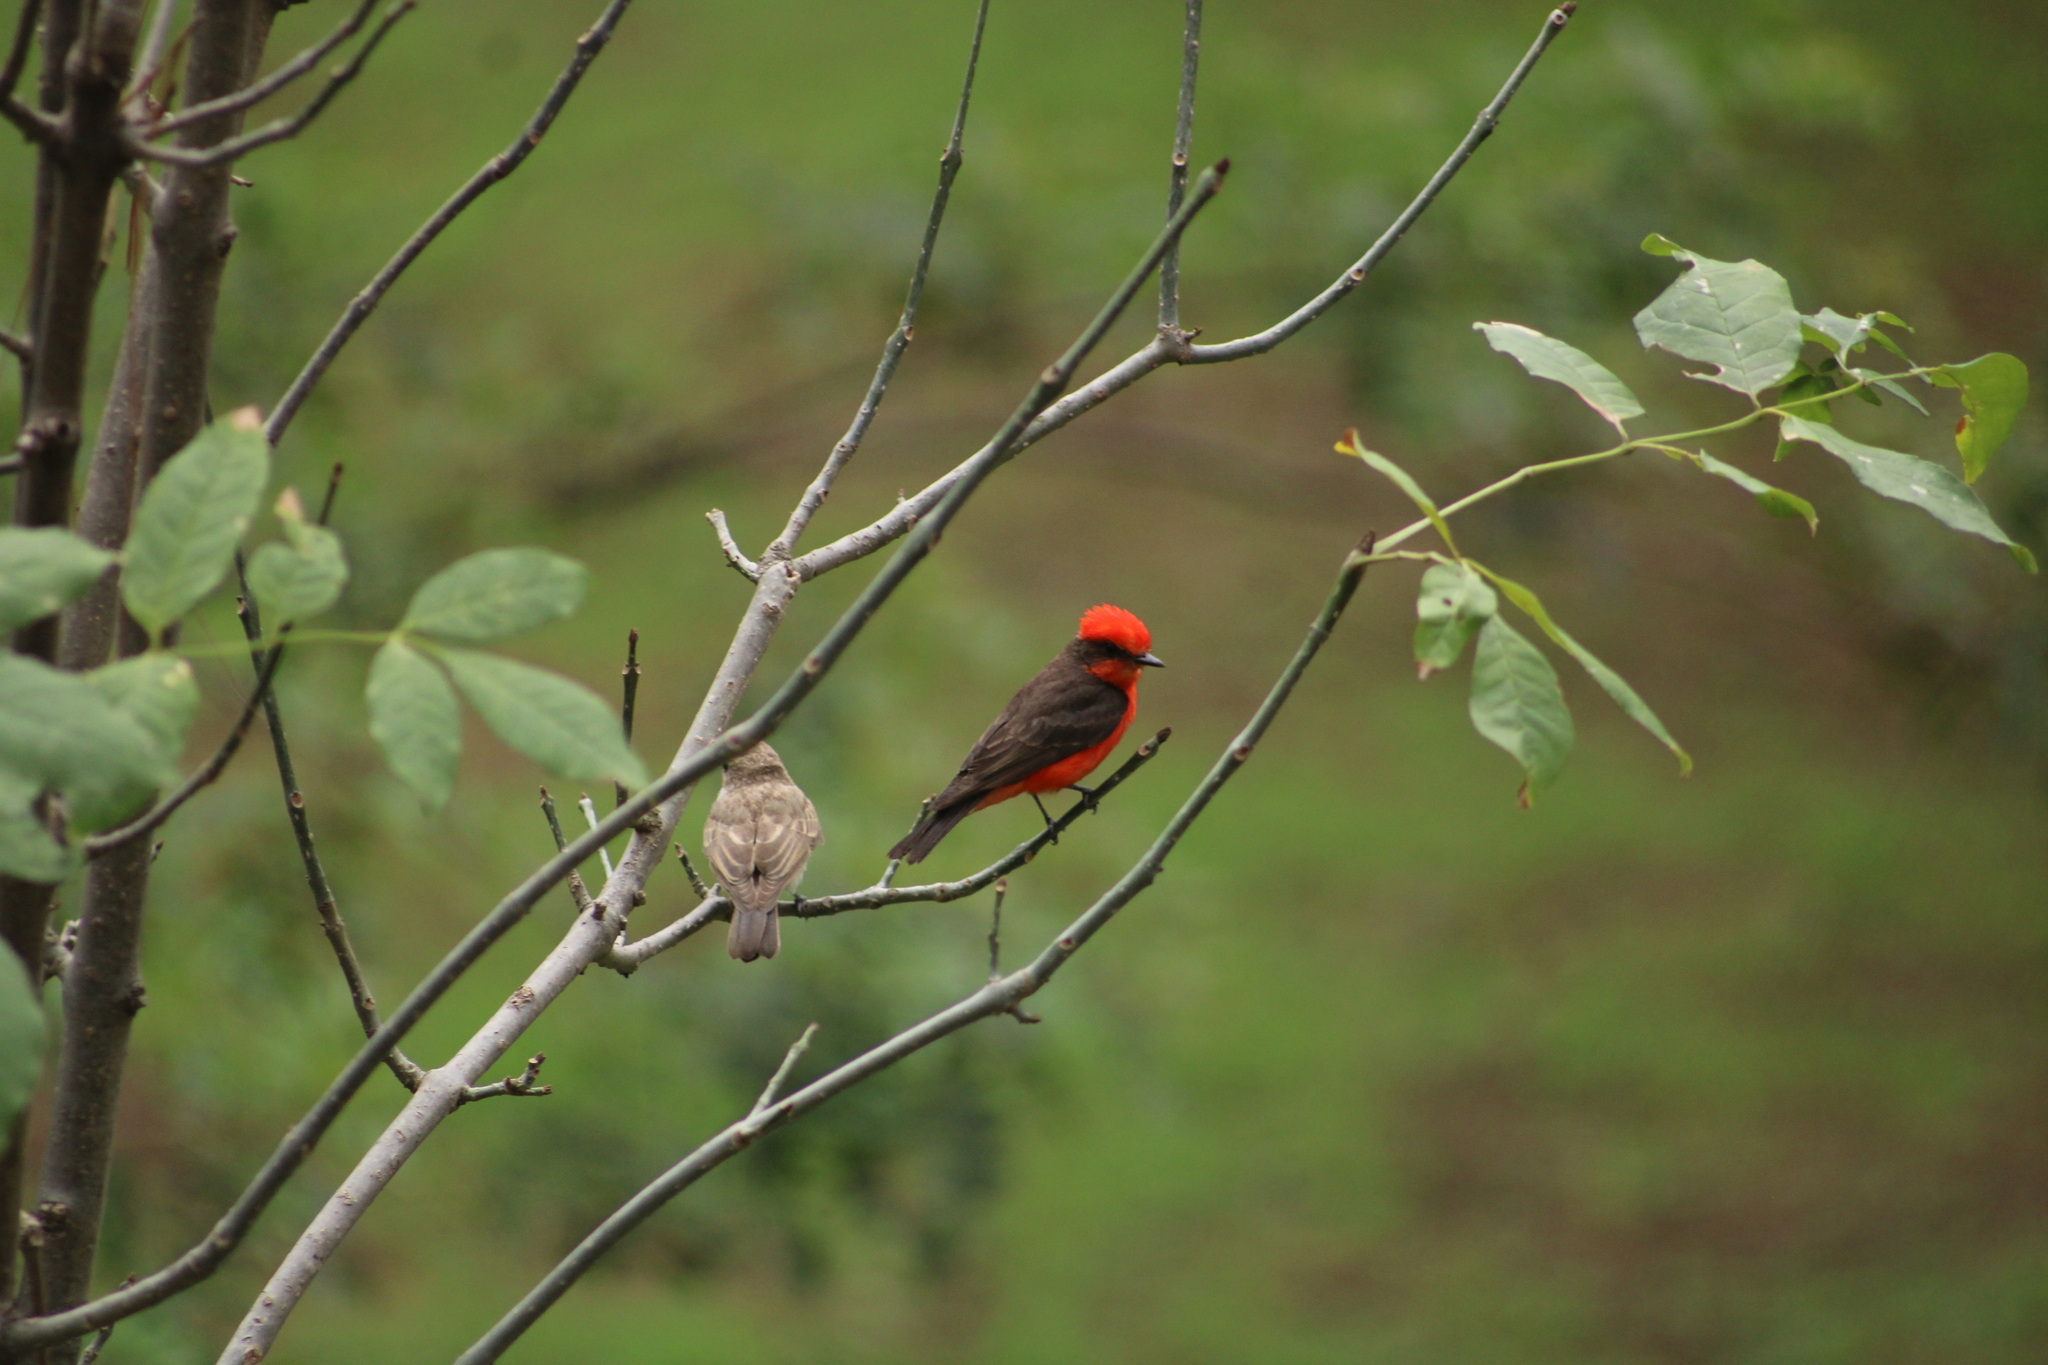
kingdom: Animalia
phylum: Chordata
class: Aves
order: Passeriformes
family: Tyrannidae
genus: Pyrocephalus
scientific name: Pyrocephalus rubinus
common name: Vermilion flycatcher
